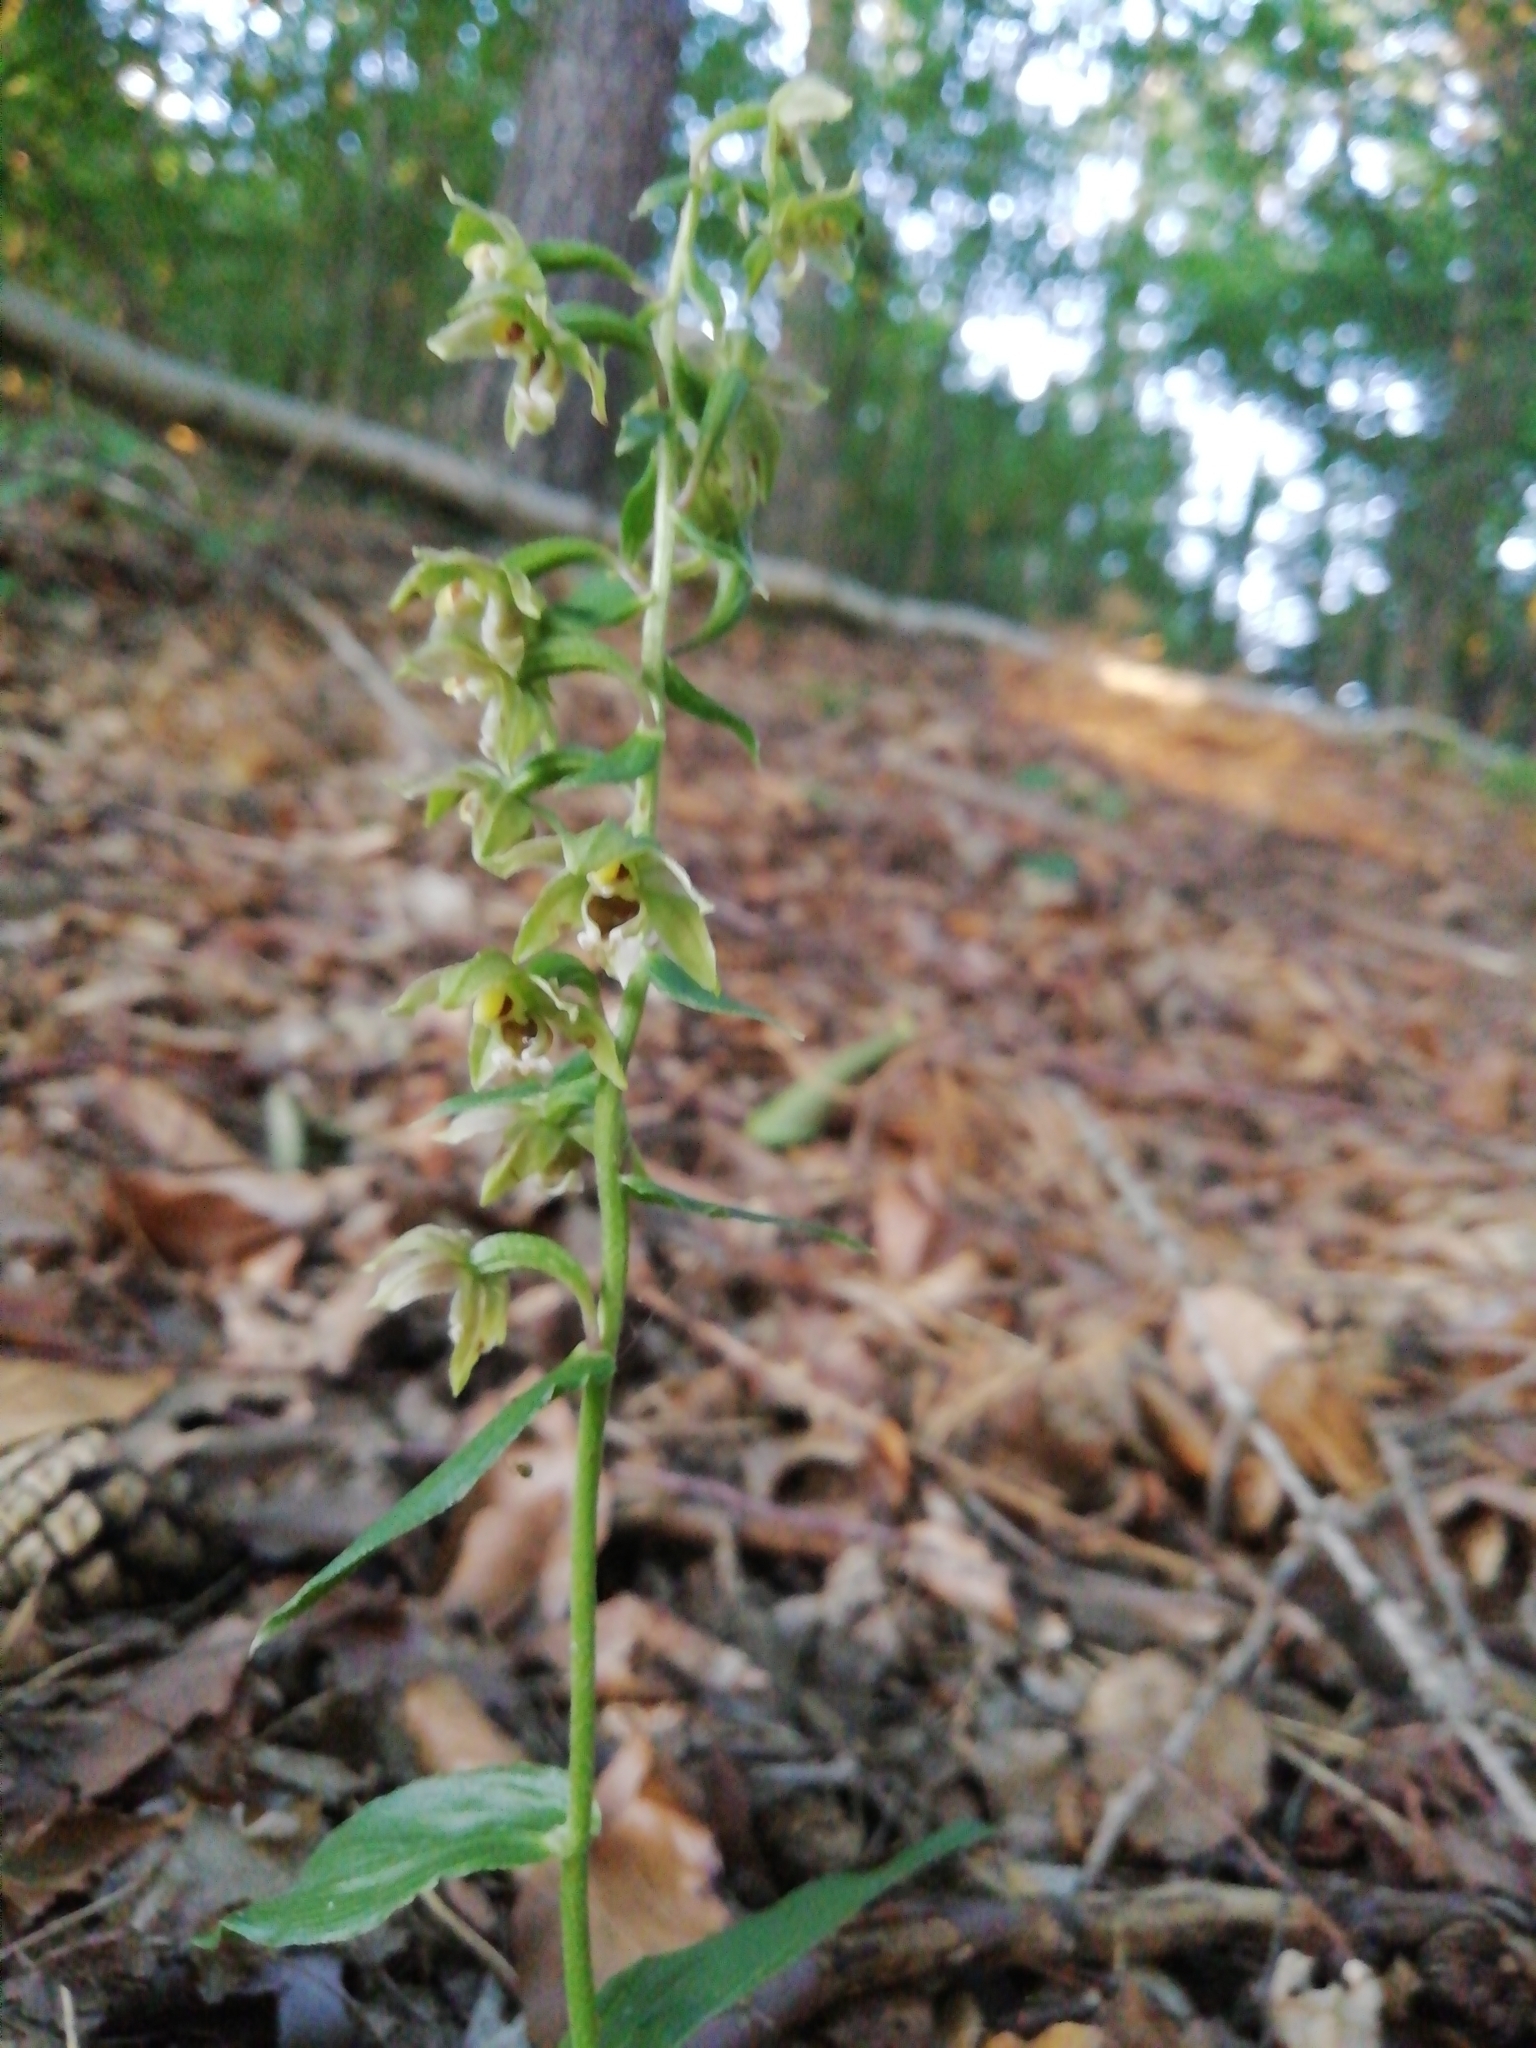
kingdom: Plantae
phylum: Tracheophyta
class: Liliopsida
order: Asparagales
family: Orchidaceae
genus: Epipactis
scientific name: Epipactis helleborine
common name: Broad-leaved helleborine
